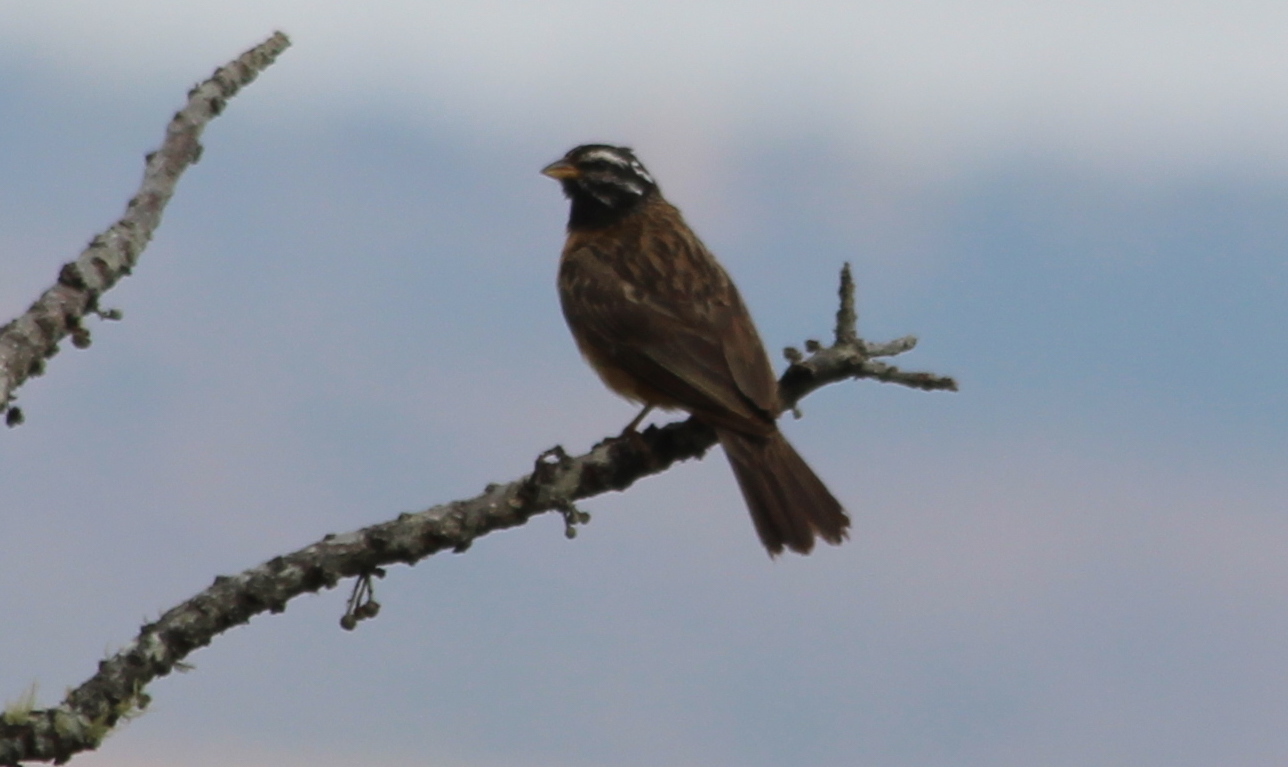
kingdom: Animalia
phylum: Chordata
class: Aves
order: Passeriformes
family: Emberizidae
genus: Emberiza
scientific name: Emberiza tahapisi
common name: Cinnamon-breasted bunting
